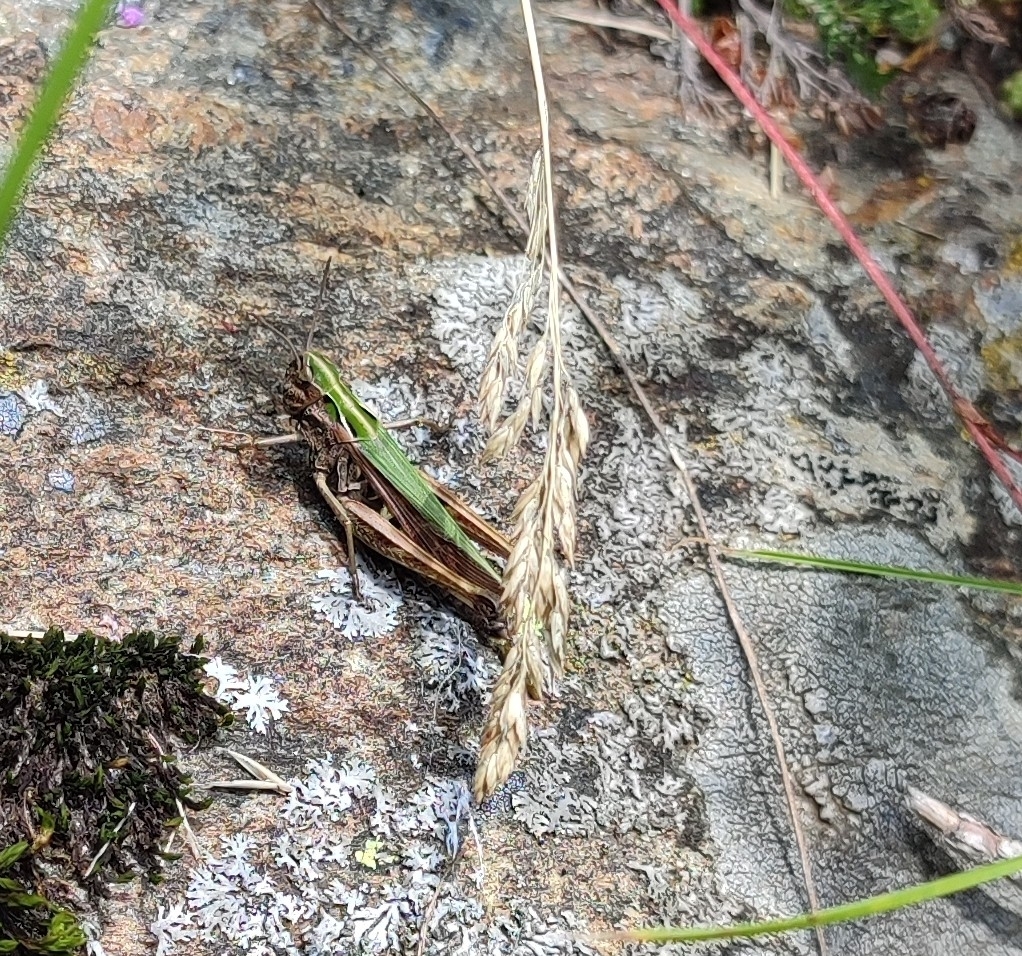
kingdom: Animalia
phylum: Arthropoda
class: Insecta
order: Orthoptera
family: Acrididae
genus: Omocestus
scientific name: Omocestus viridulus
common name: Common green grasshopper
